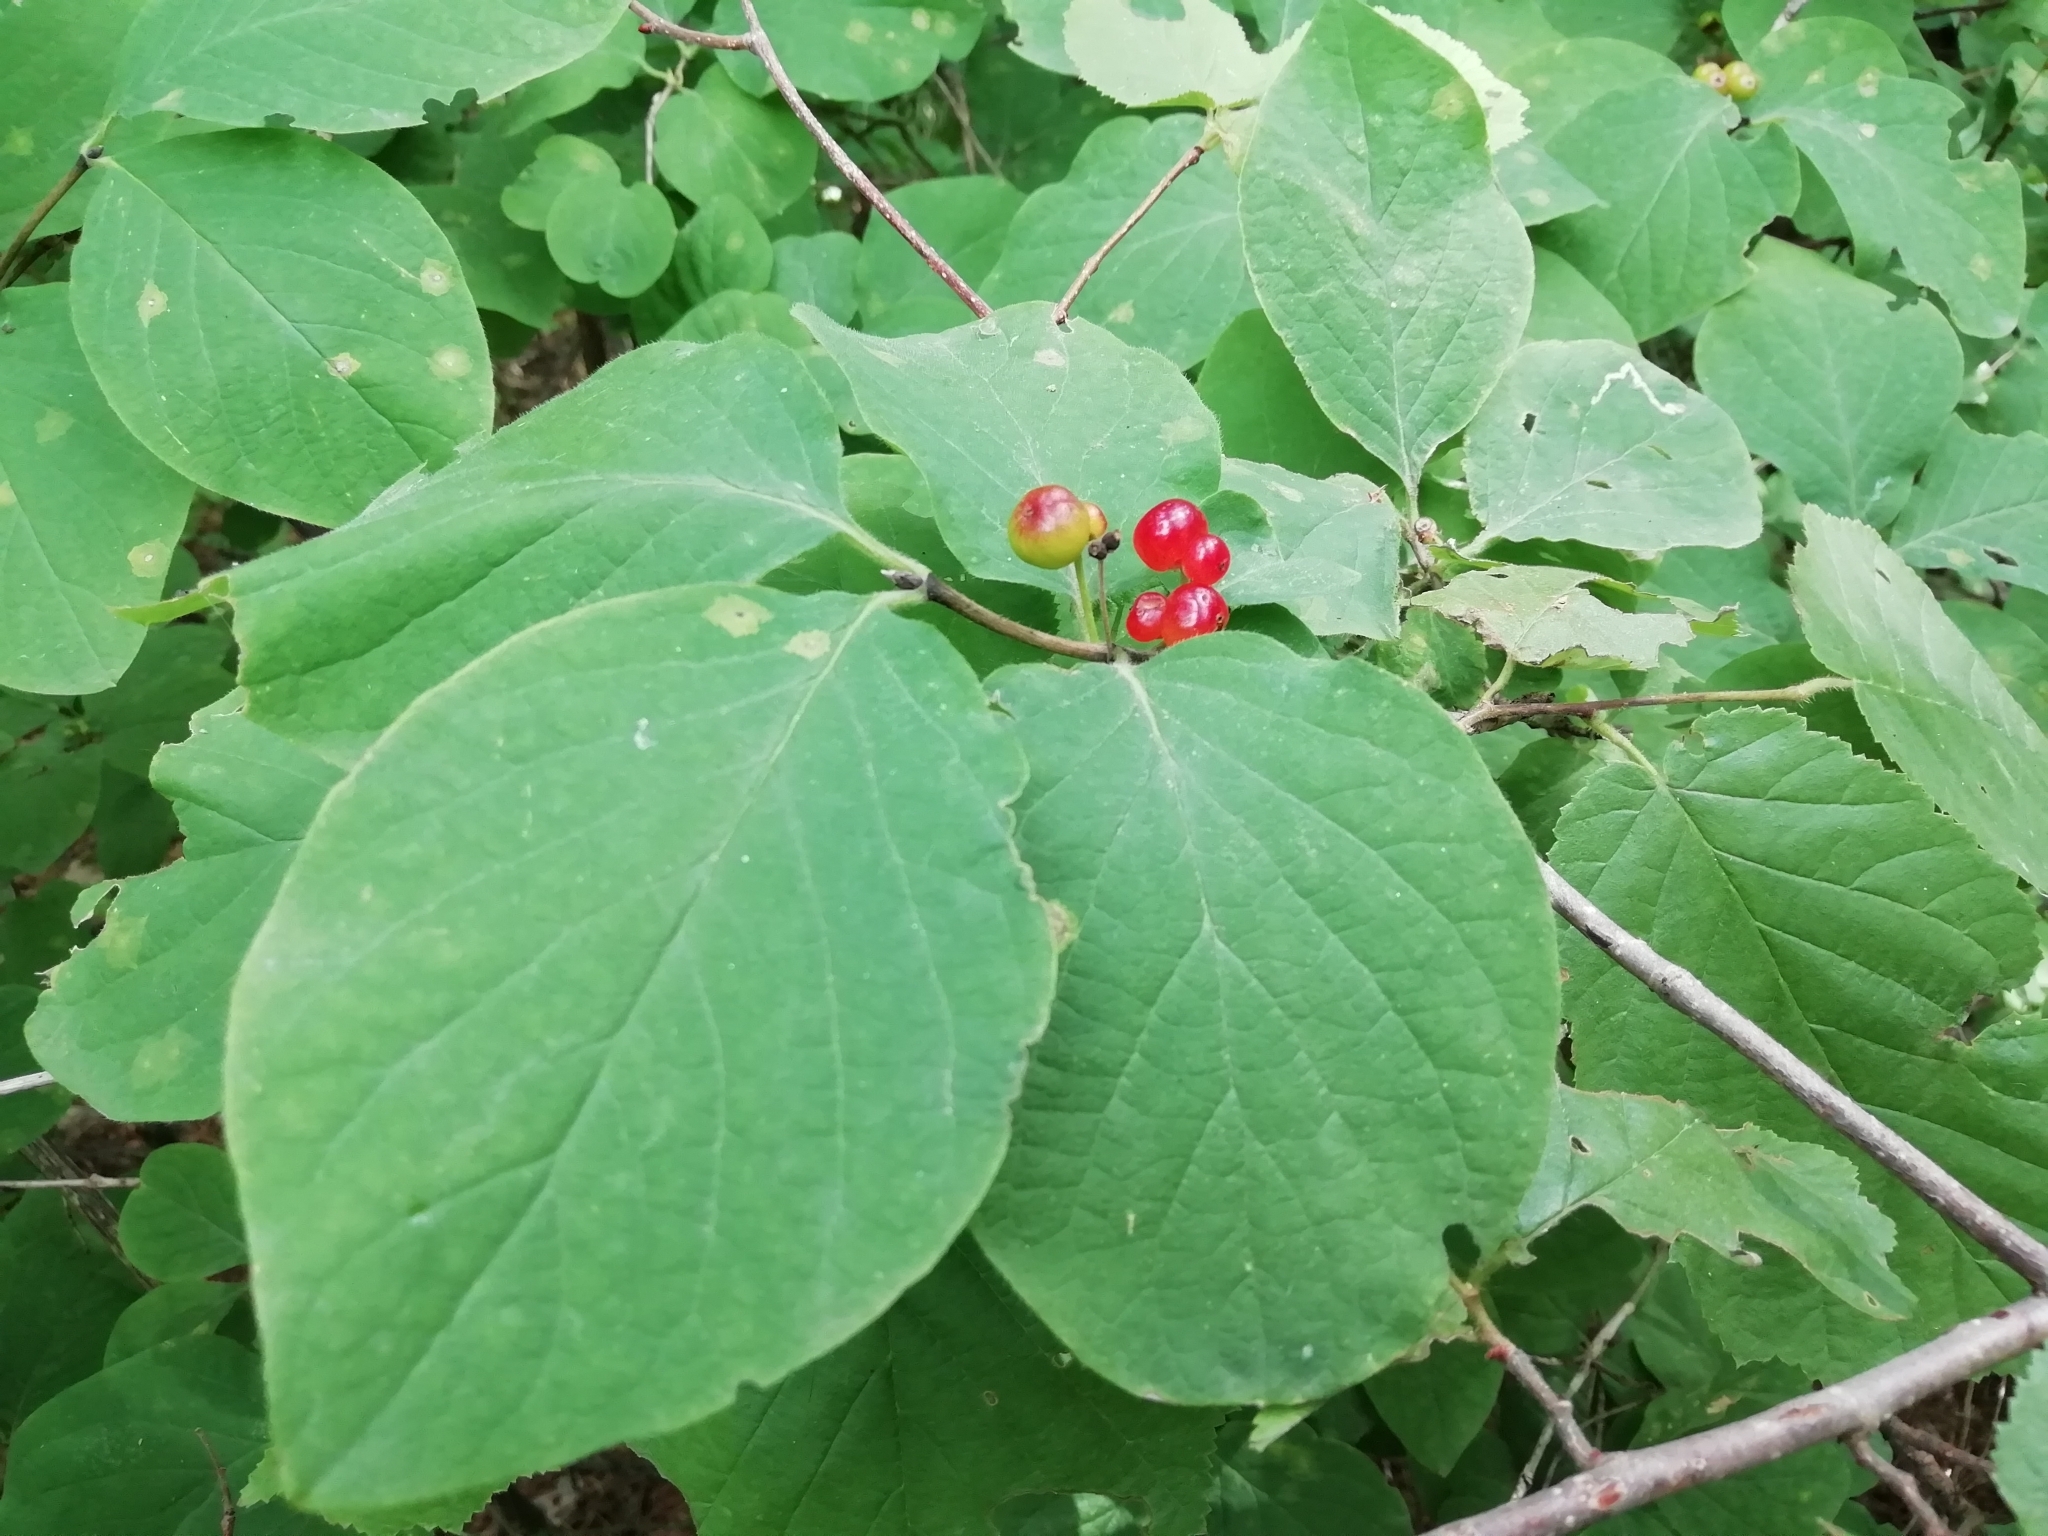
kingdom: Plantae
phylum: Tracheophyta
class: Magnoliopsida
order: Dipsacales
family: Caprifoliaceae
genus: Lonicera
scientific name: Lonicera xylosteum
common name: Fly honeysuckle
